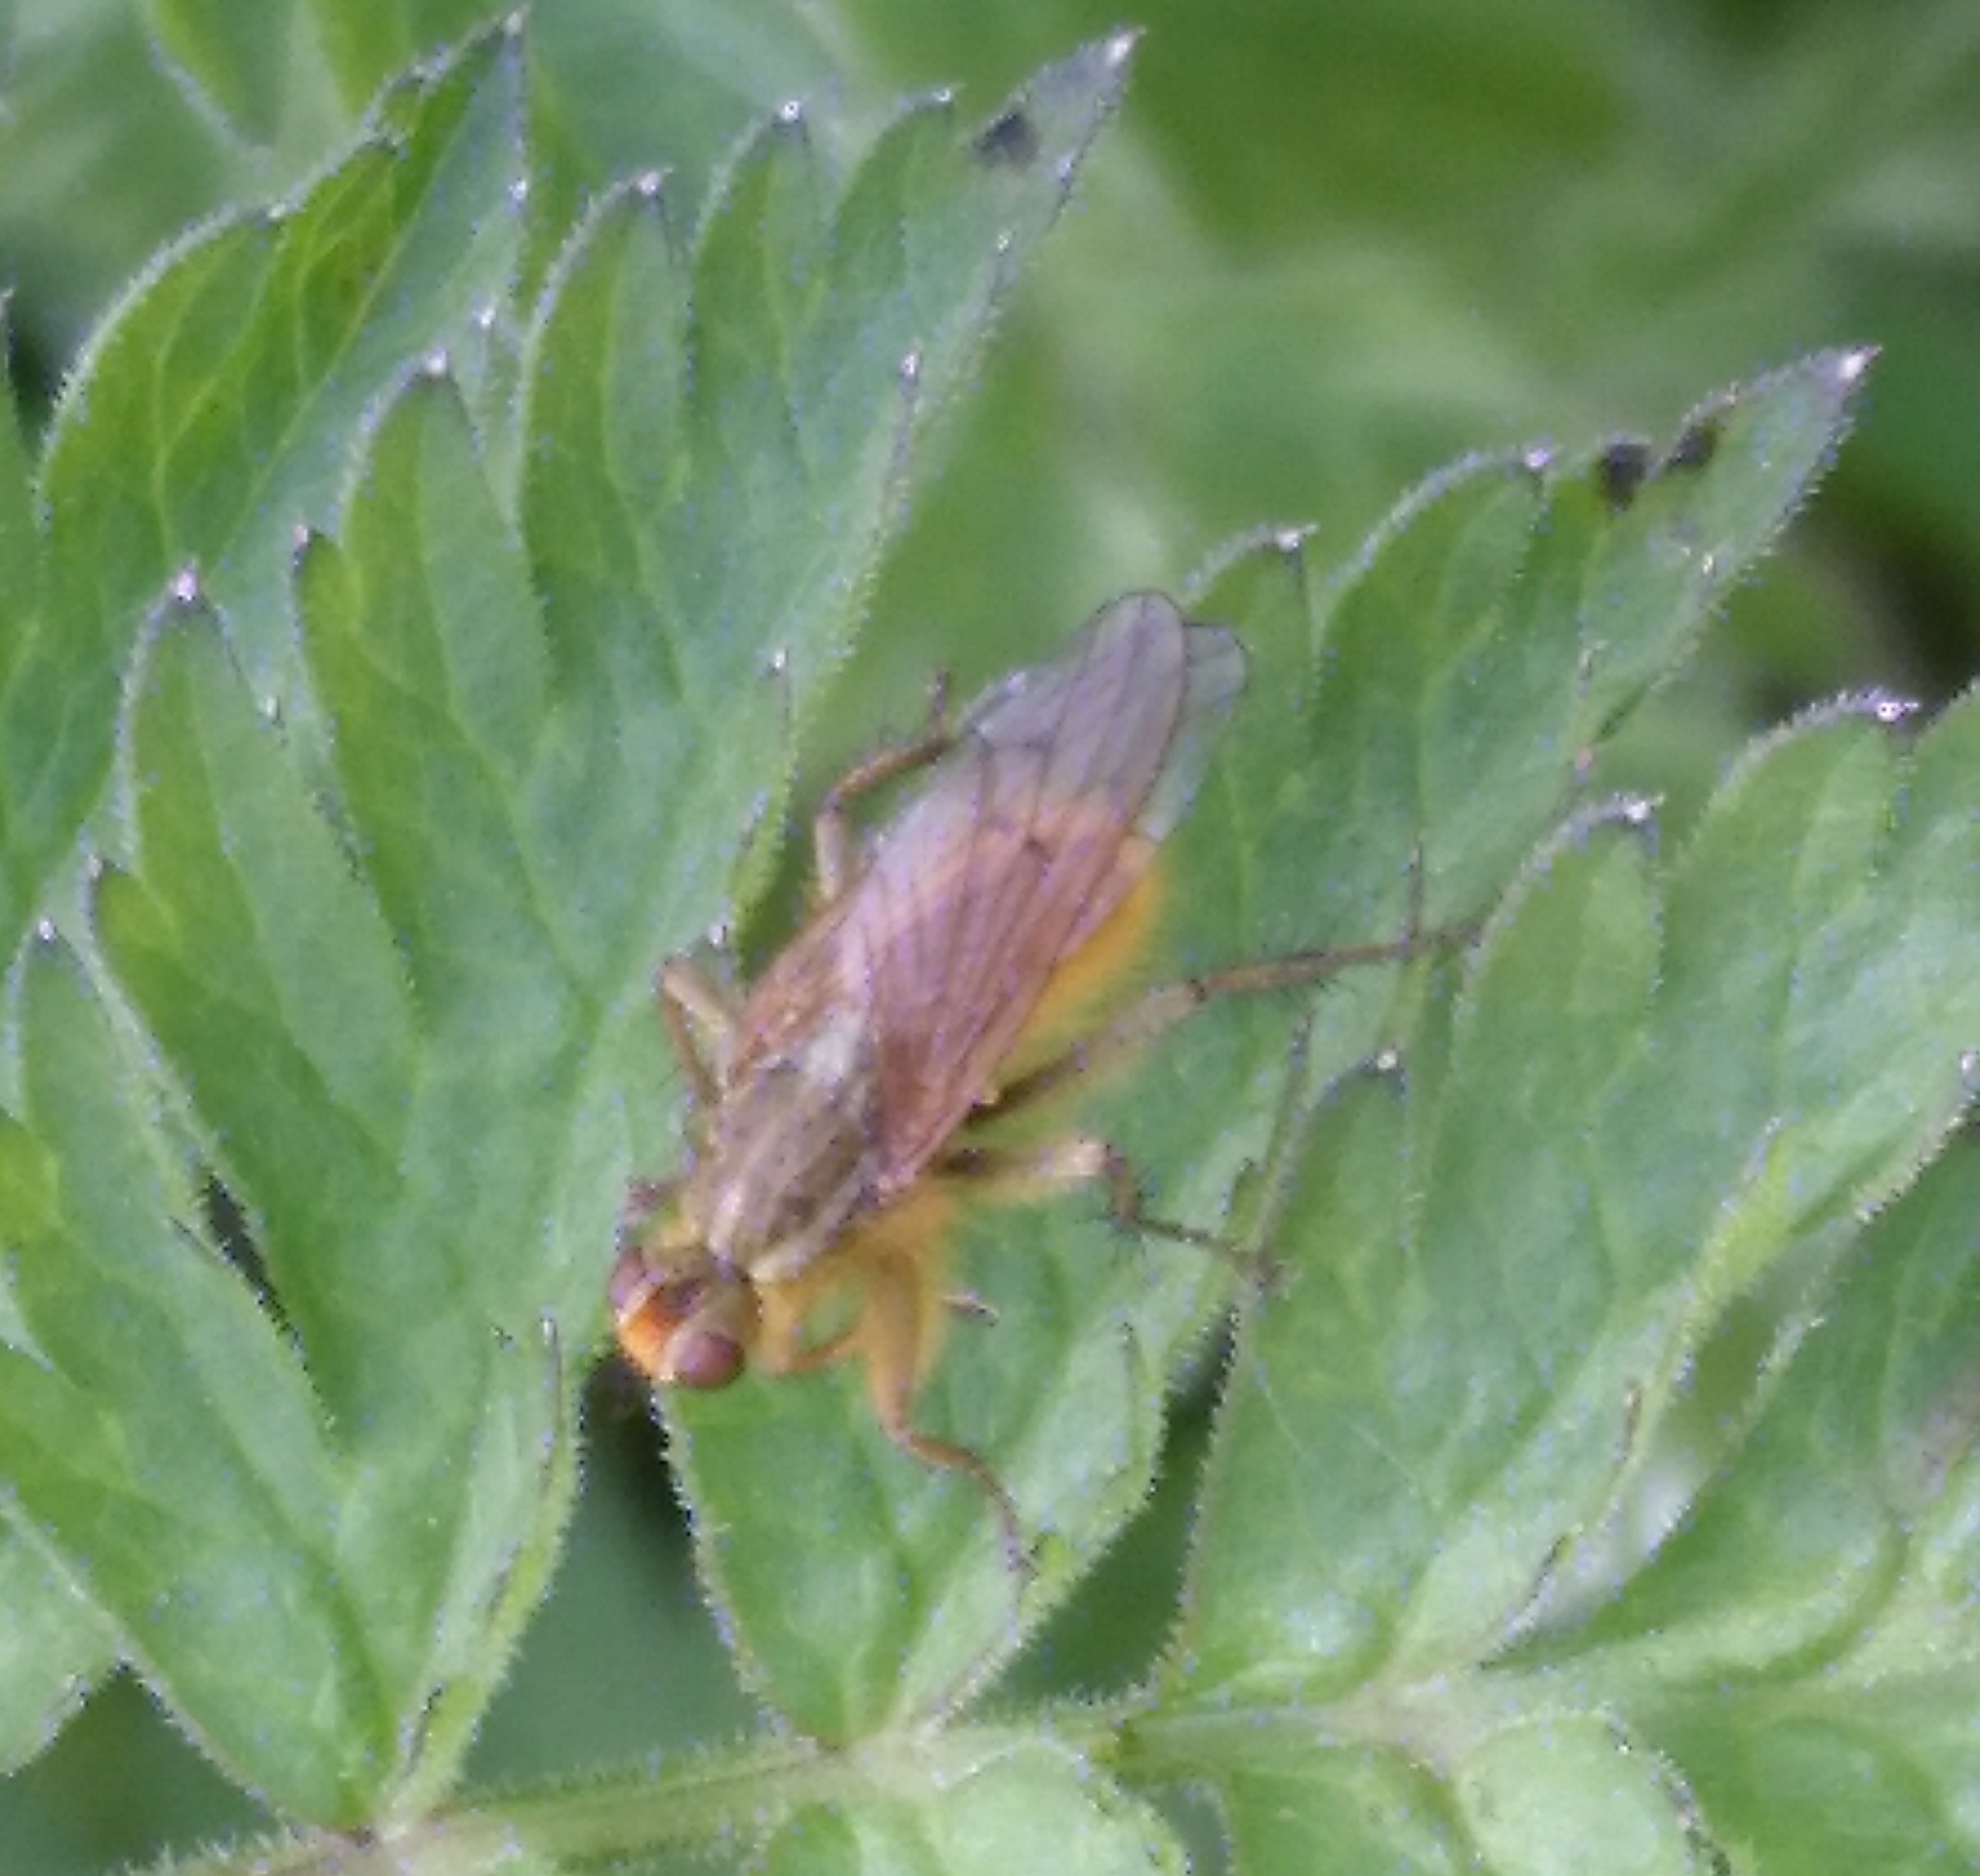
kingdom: Animalia
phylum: Arthropoda
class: Insecta
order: Diptera
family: Scathophagidae
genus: Scathophaga
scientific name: Scathophaga stercoraria
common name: Yellow dung fly
